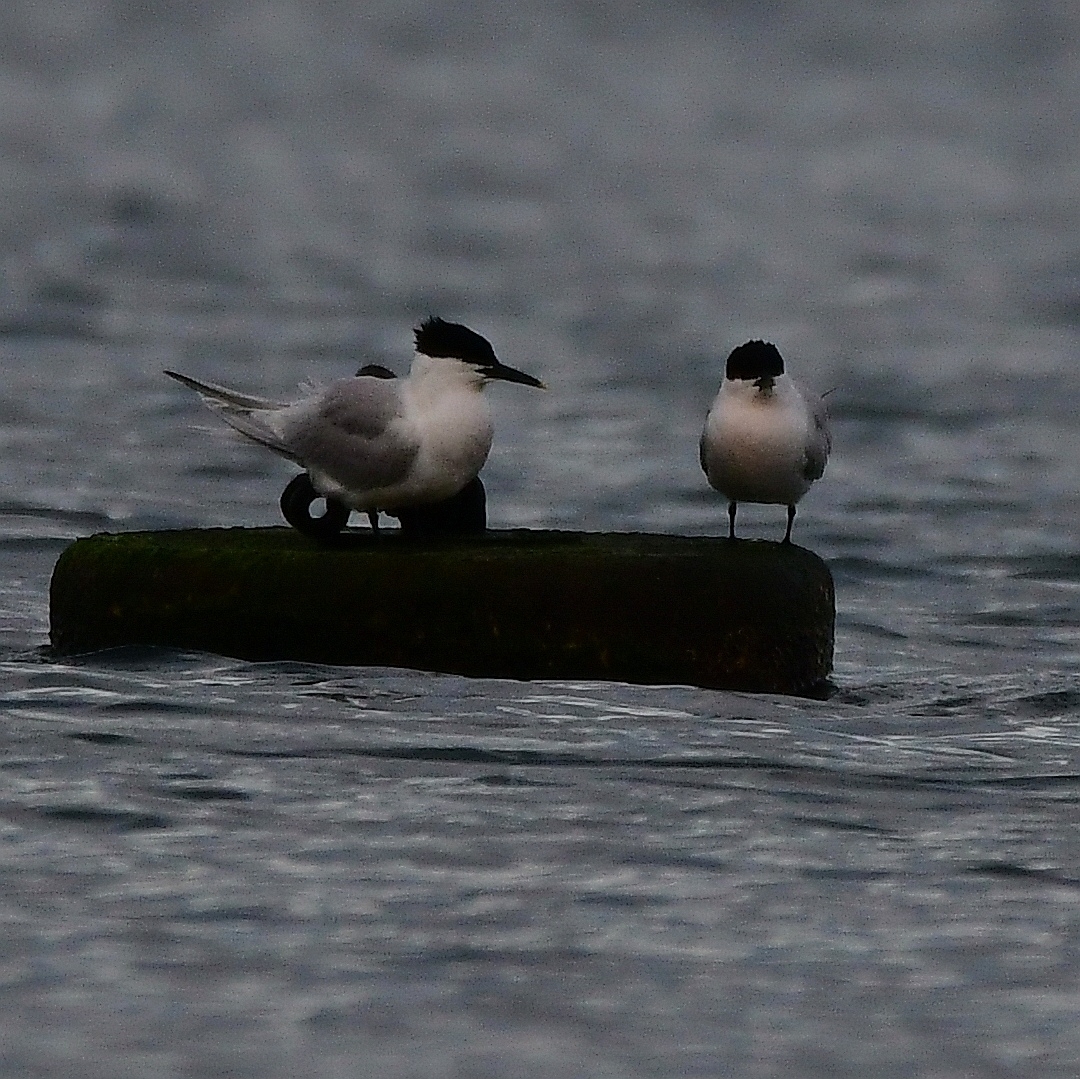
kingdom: Animalia
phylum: Chordata
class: Aves
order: Charadriiformes
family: Laridae
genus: Thalasseus
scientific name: Thalasseus sandvicensis
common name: Sandwich tern
